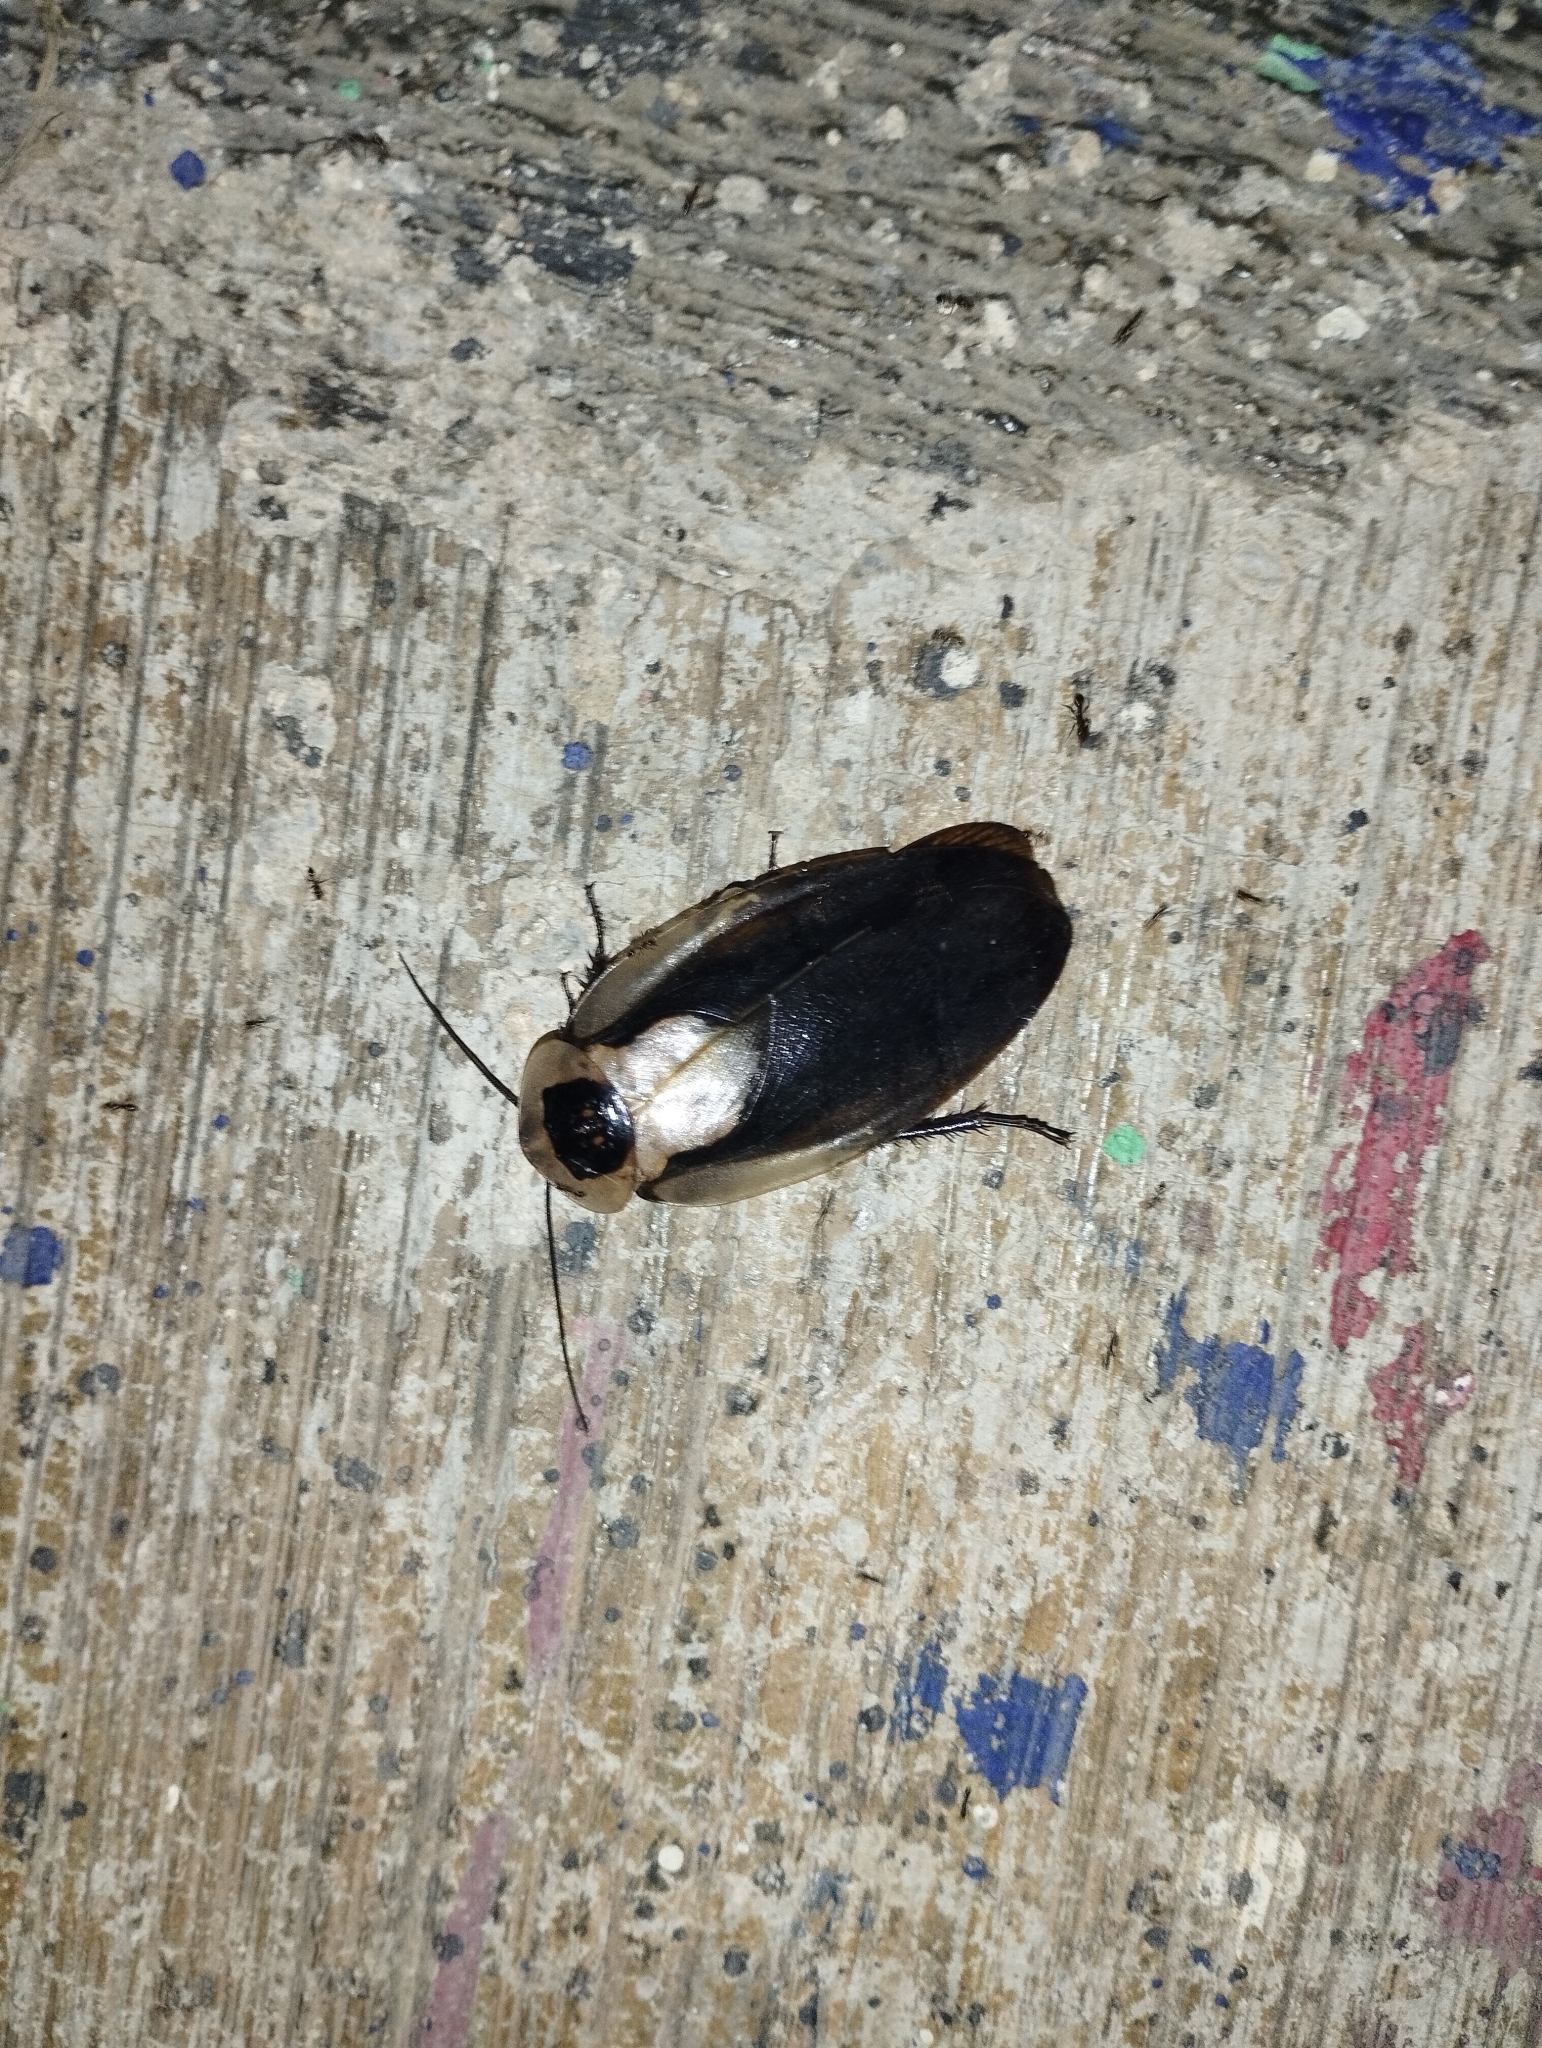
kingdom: Animalia
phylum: Arthropoda
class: Insecta
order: Blattodea
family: Blaberidae
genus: Blaberus
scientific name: Blaberus craniifer
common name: Death's head cockroach
